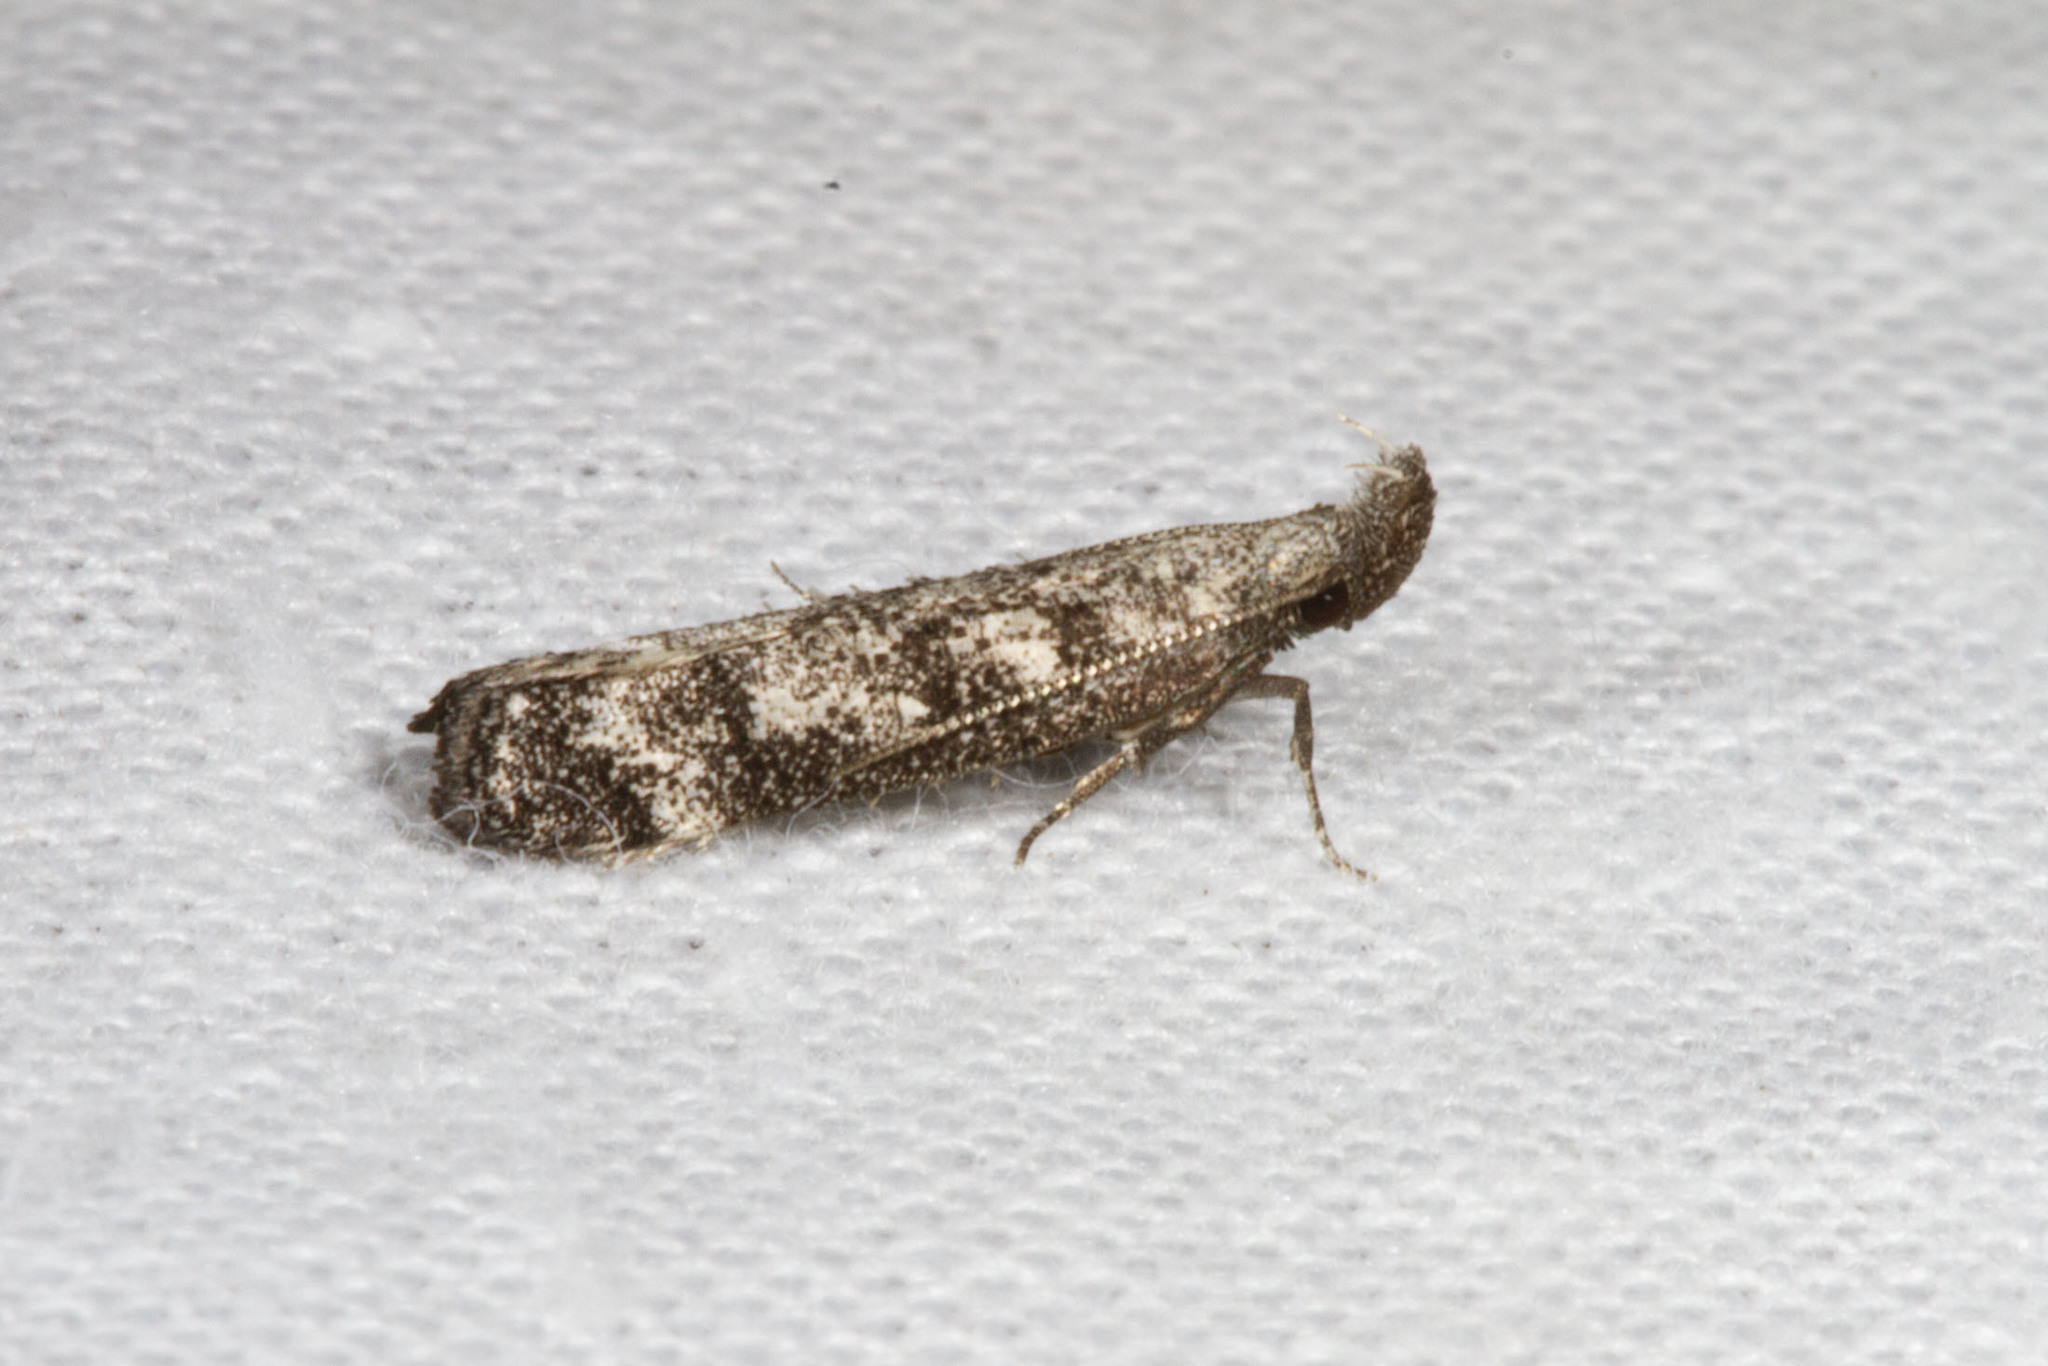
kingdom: Animalia
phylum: Arthropoda
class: Insecta
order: Lepidoptera
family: Gelechiidae
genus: Dichomeris
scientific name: Dichomeris inversella
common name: Inverse dichomeris moth
